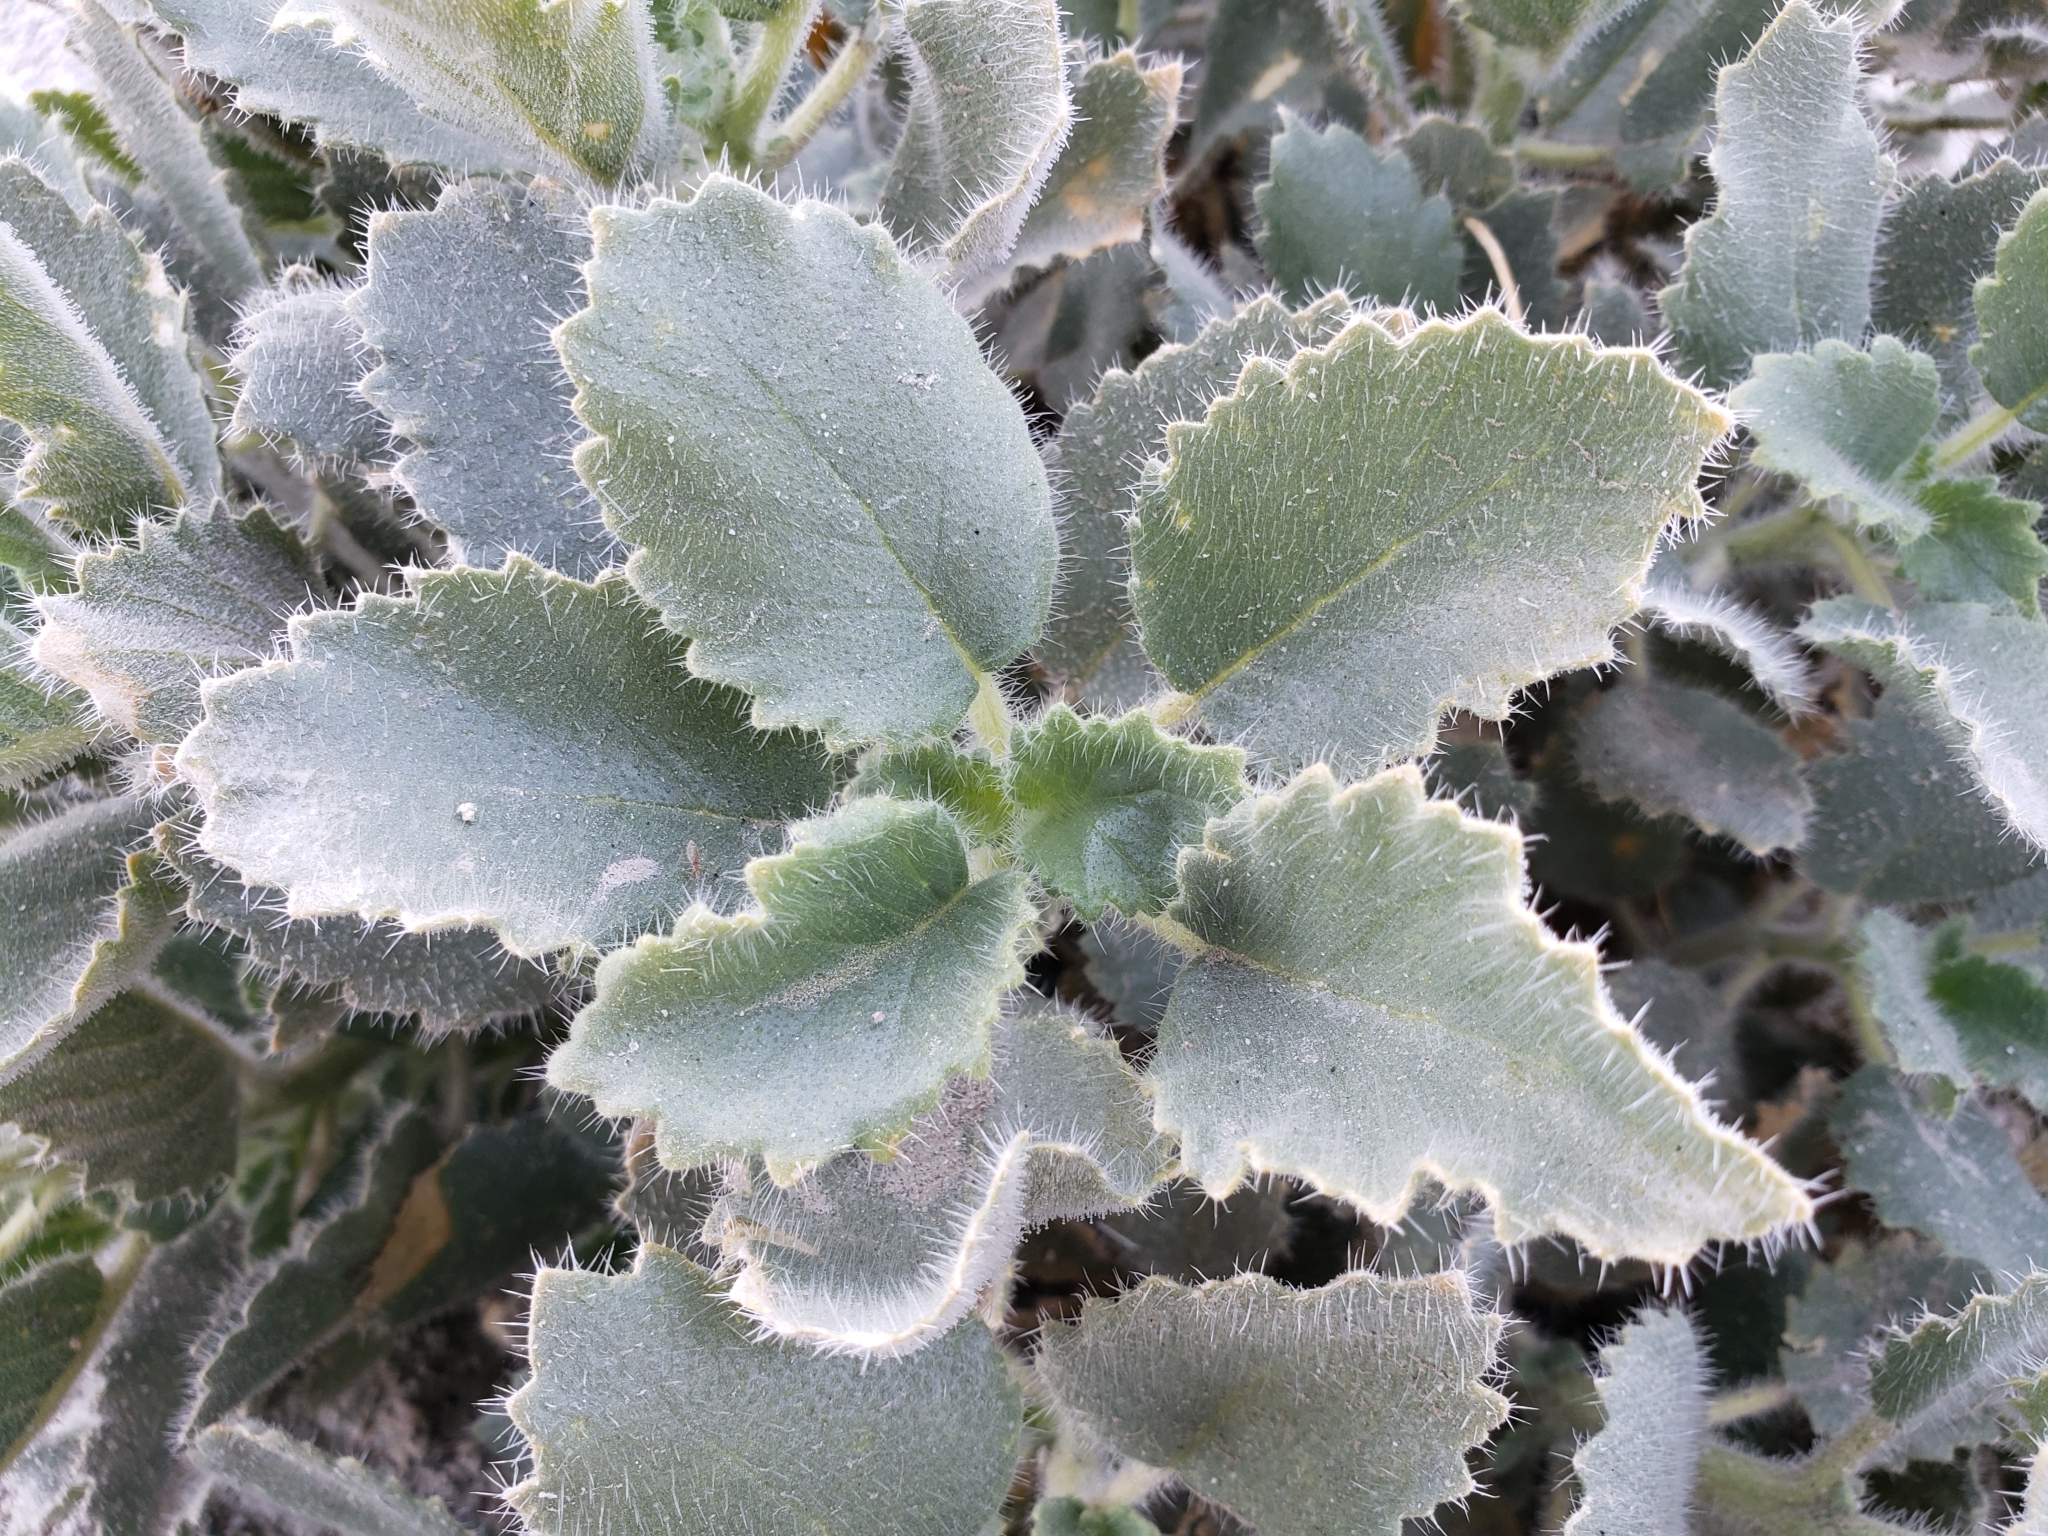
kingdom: Plantae
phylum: Tracheophyta
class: Magnoliopsida
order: Cornales
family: Loasaceae
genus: Eucnide
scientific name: Eucnide urens
